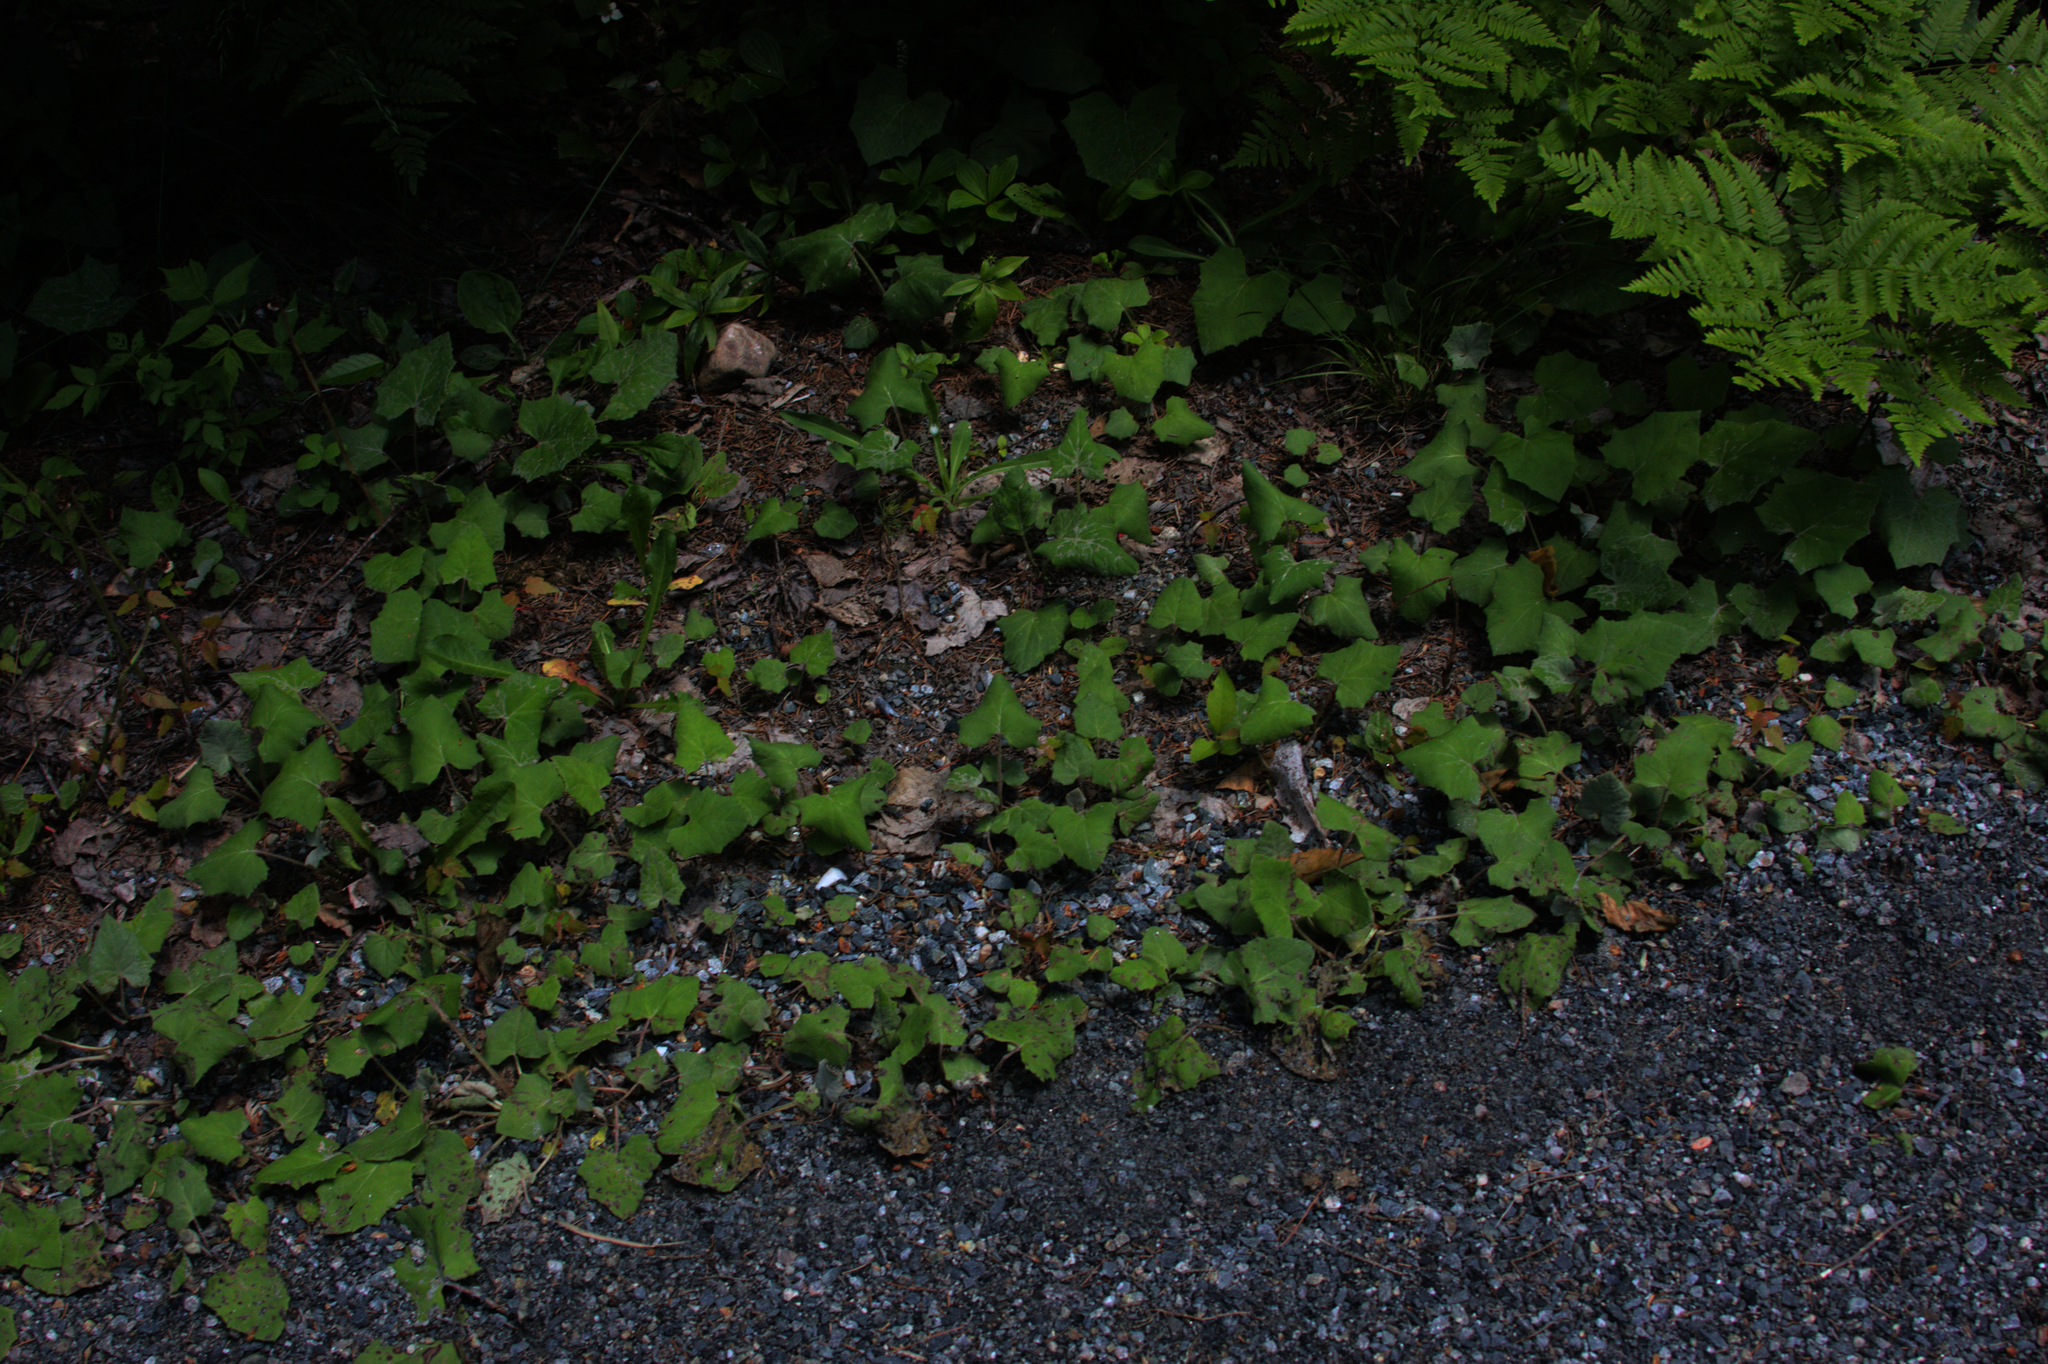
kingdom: Plantae
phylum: Tracheophyta
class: Magnoliopsida
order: Asterales
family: Asteraceae
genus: Tussilago
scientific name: Tussilago farfara
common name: Coltsfoot
